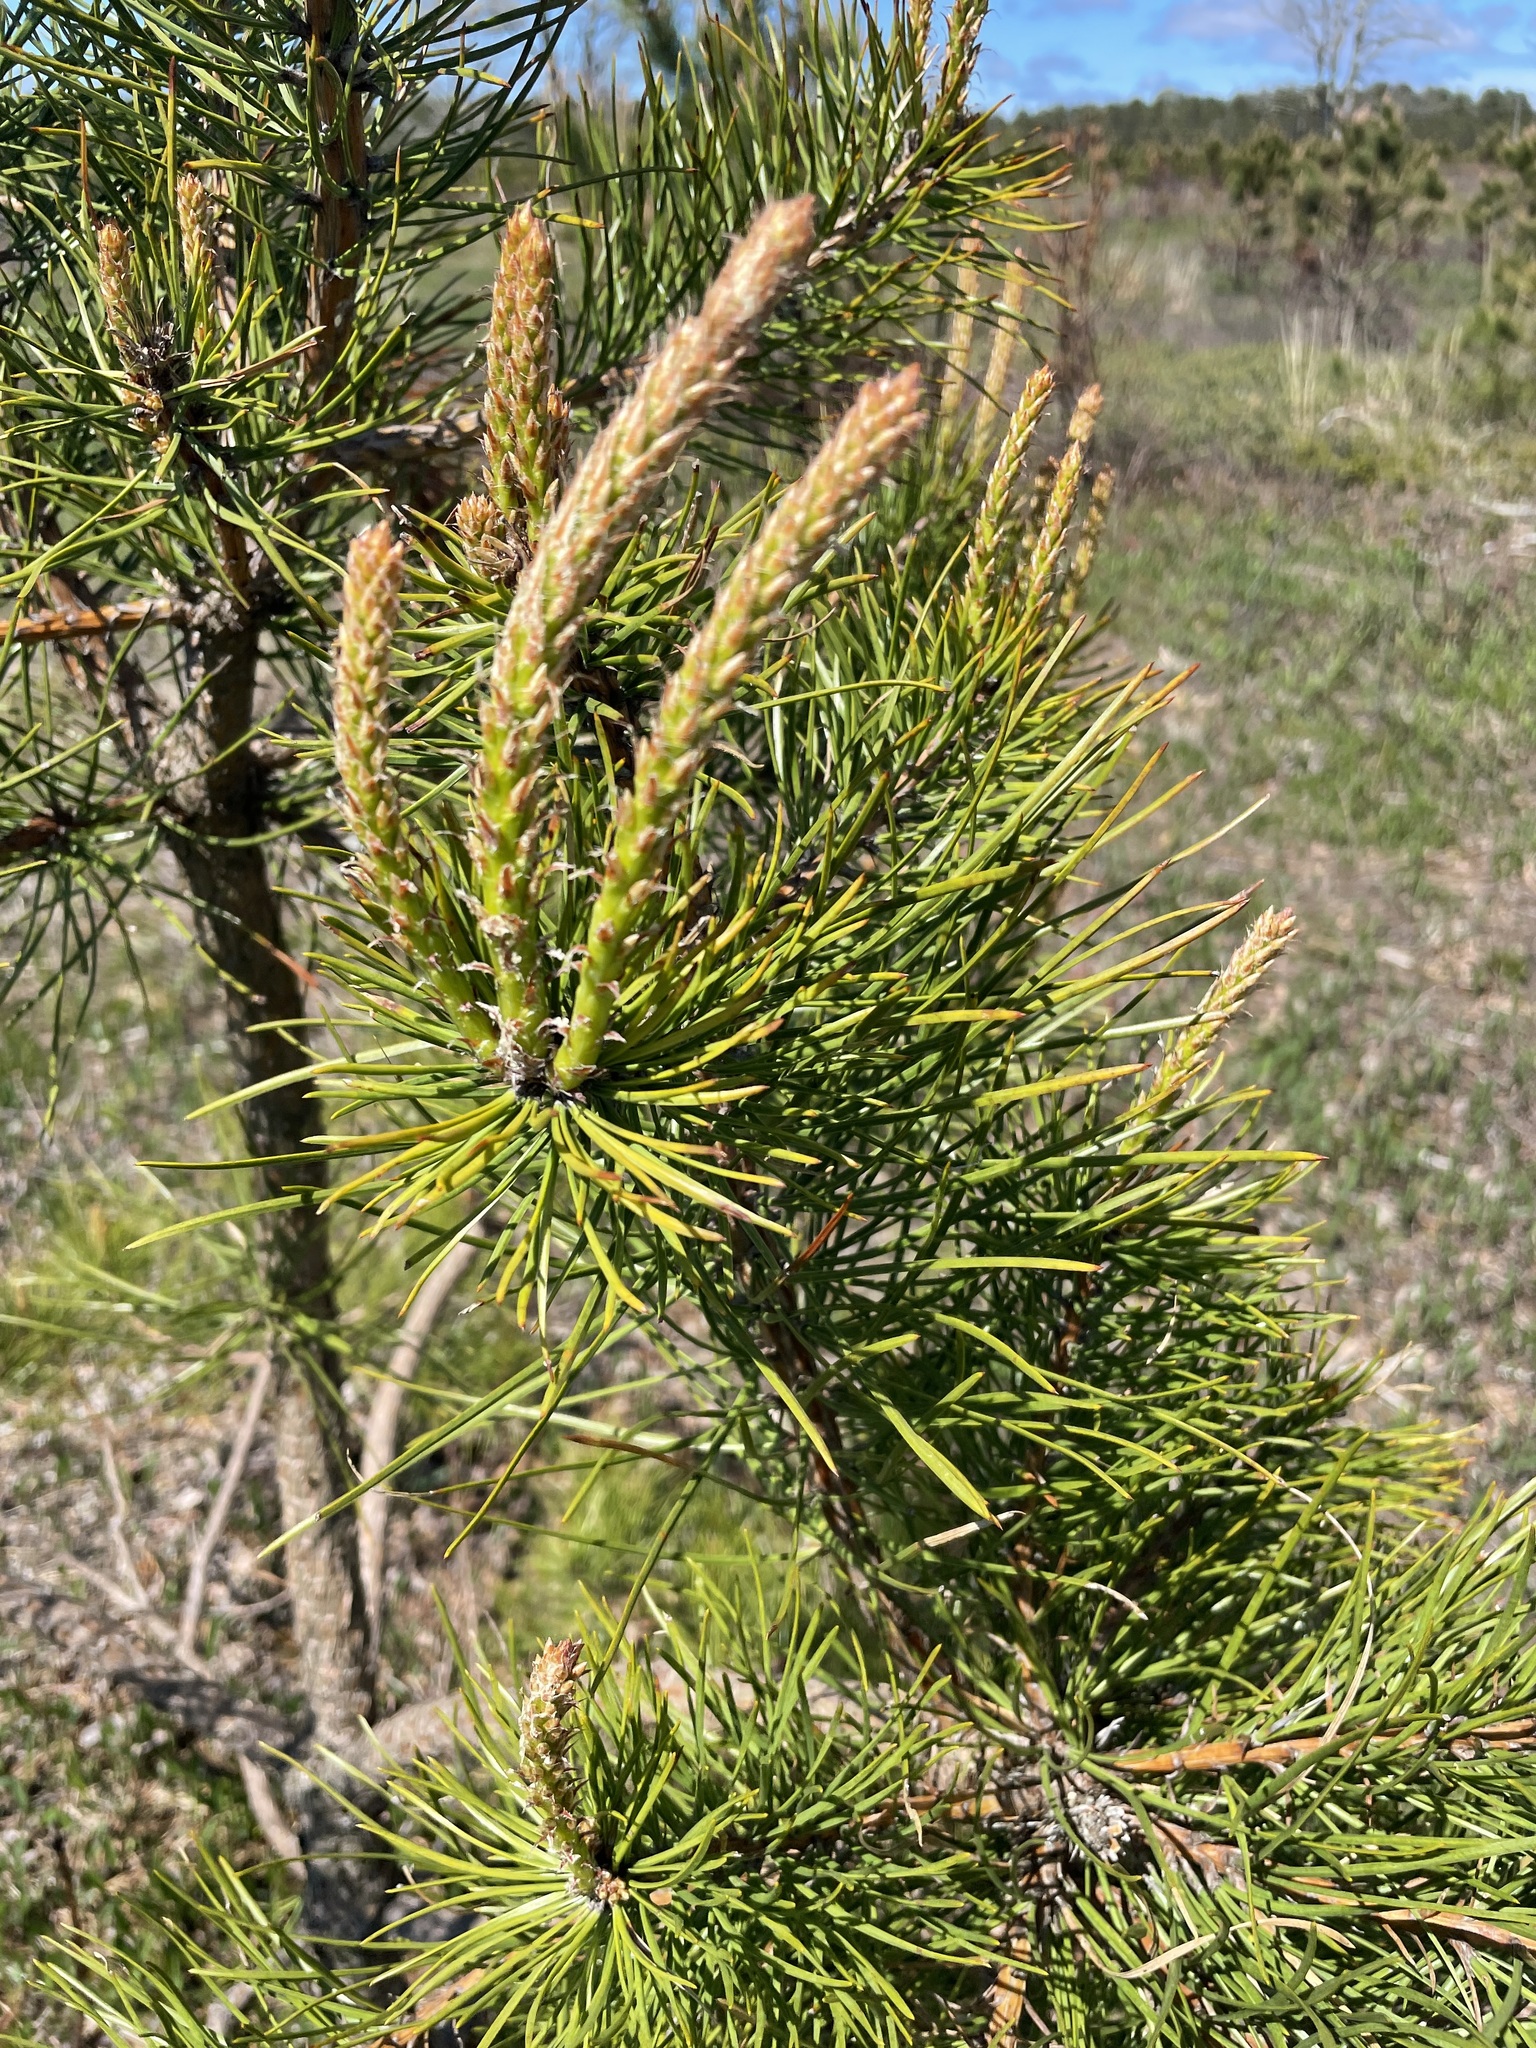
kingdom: Plantae
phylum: Tracheophyta
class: Pinopsida
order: Pinales
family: Pinaceae
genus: Pinus
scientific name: Pinus rigida
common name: Pitch pine
